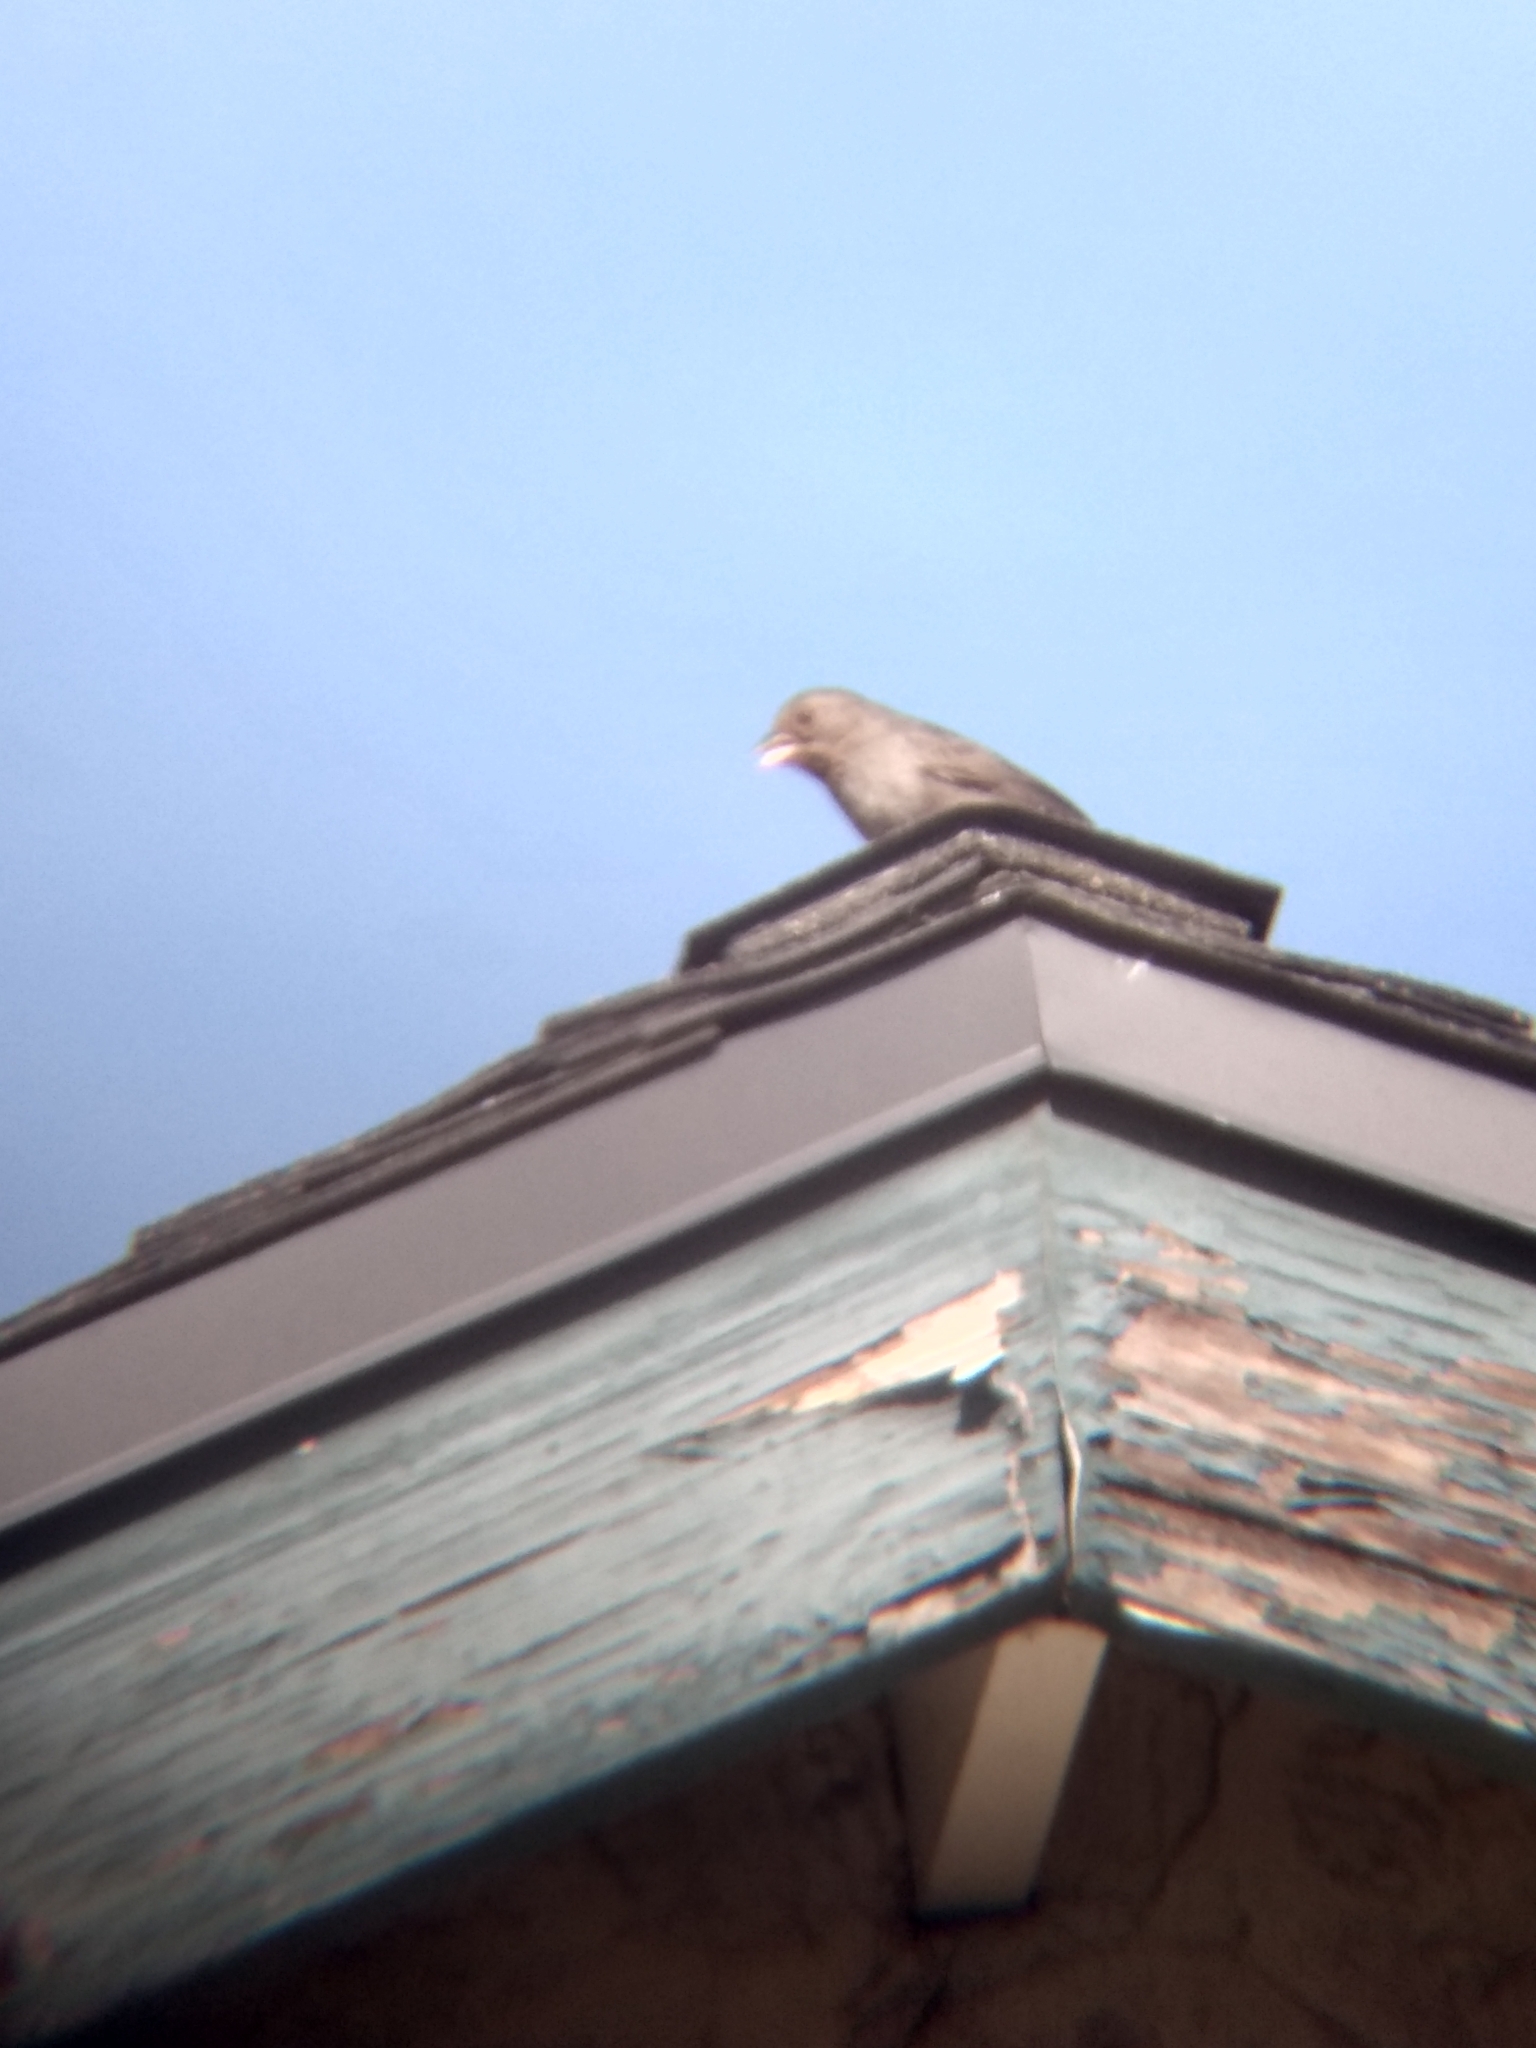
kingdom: Animalia
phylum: Chordata
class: Aves
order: Passeriformes
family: Passerellidae
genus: Melozone
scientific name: Melozone crissalis
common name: California towhee
